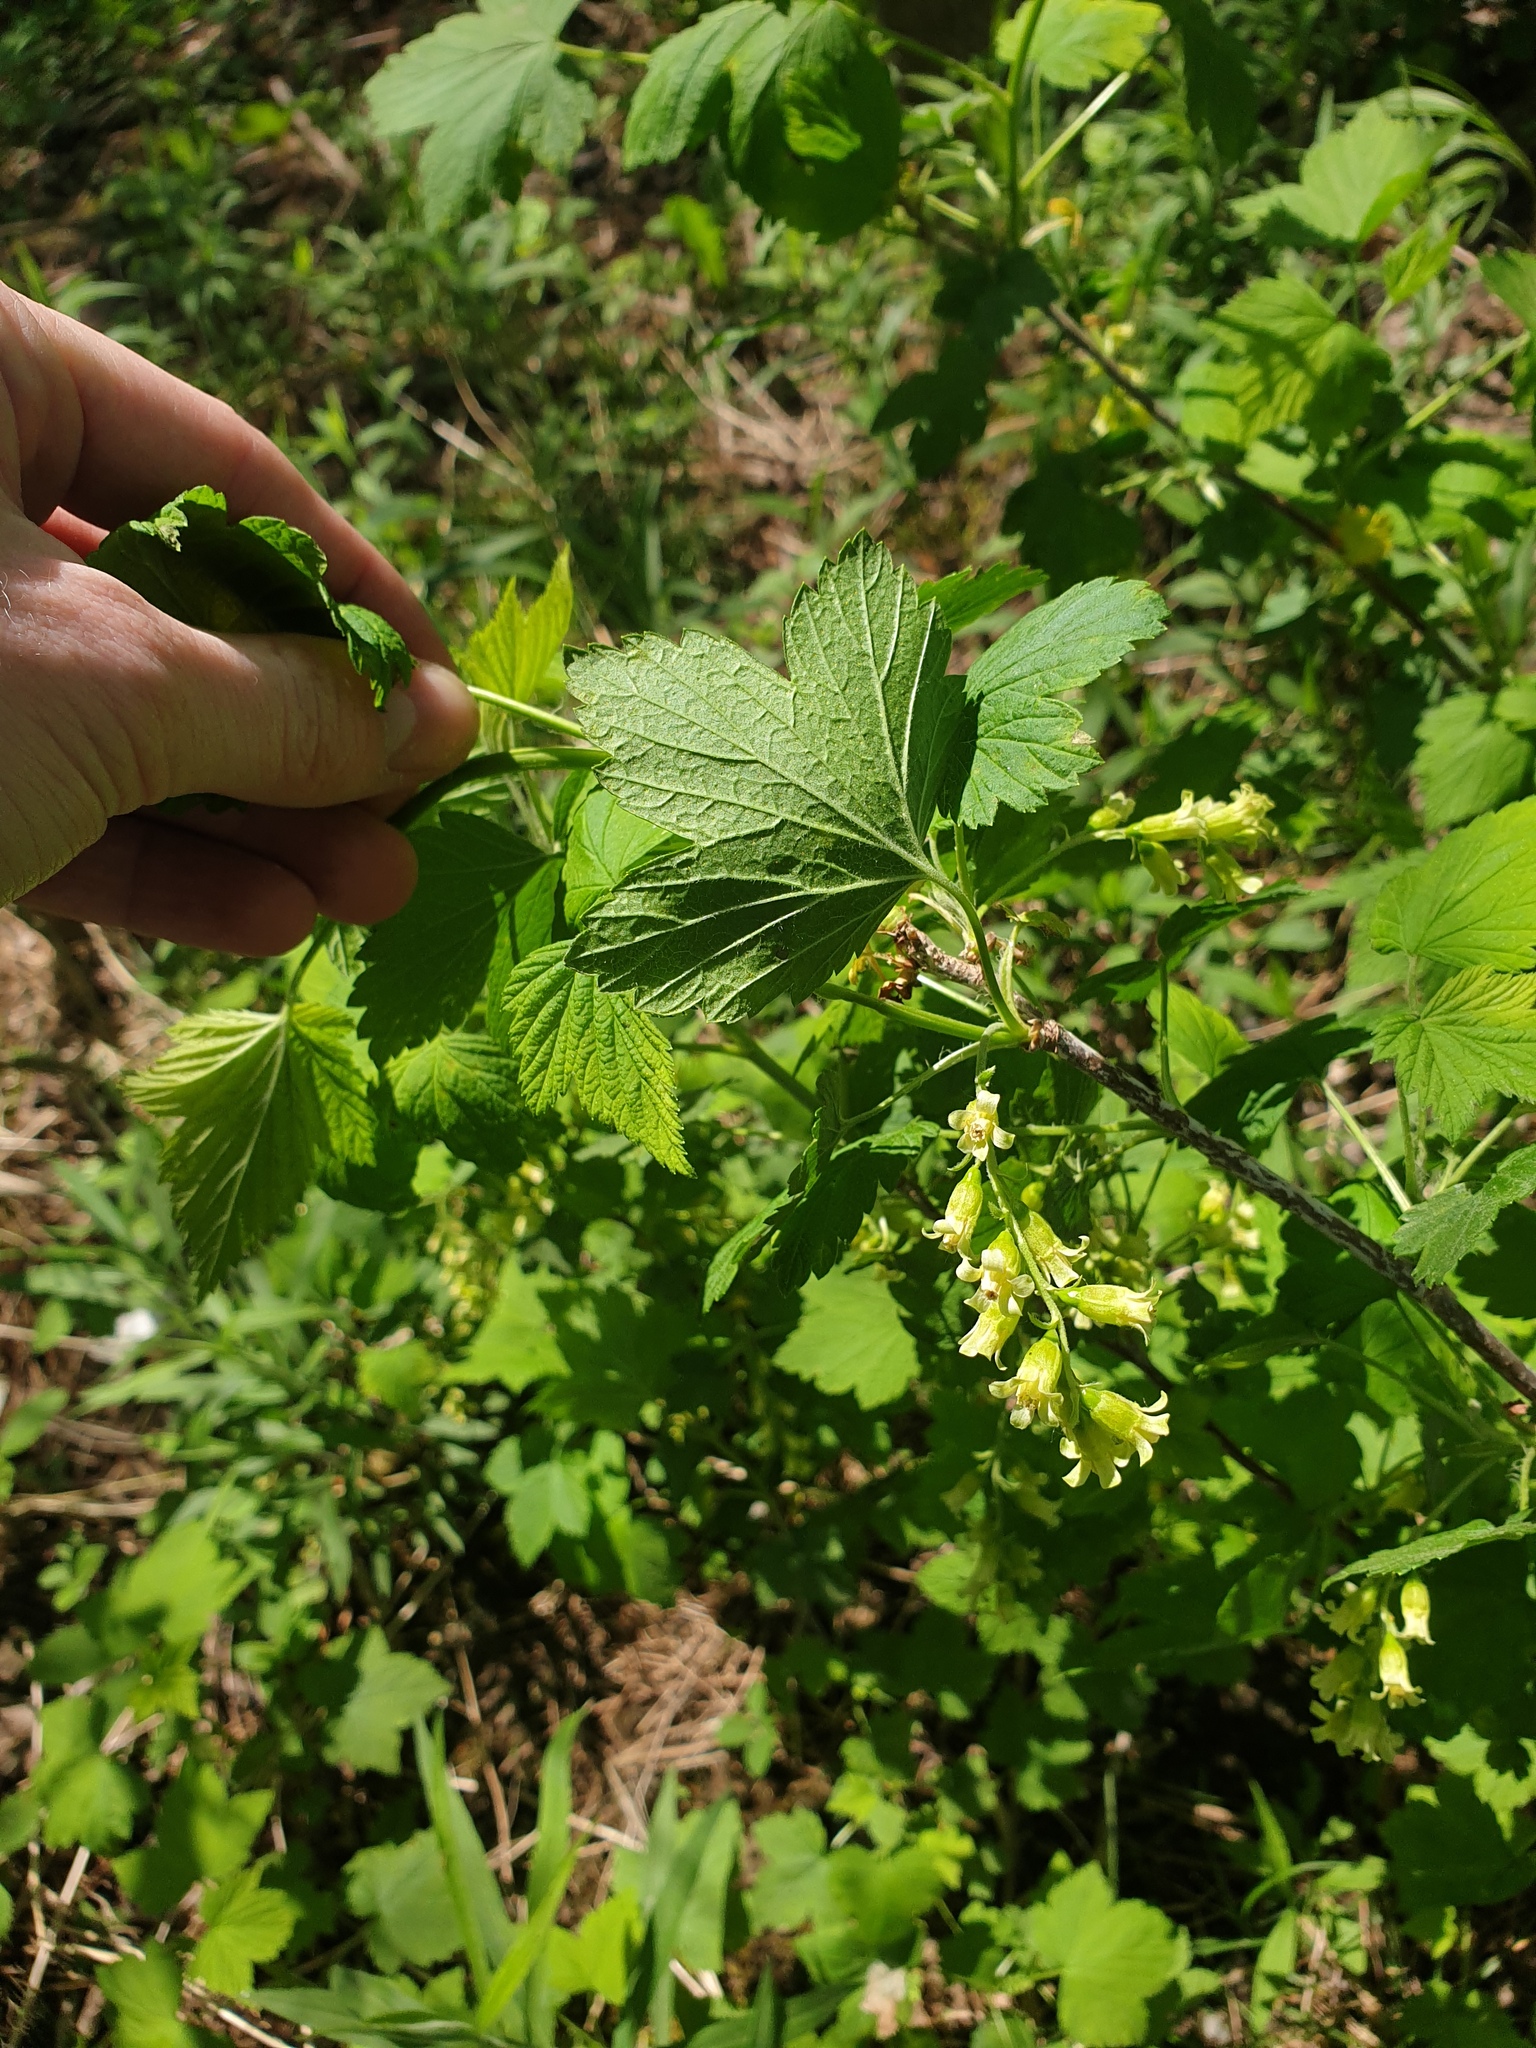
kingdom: Plantae
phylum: Tracheophyta
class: Magnoliopsida
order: Saxifragales
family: Grossulariaceae
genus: Ribes
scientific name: Ribes americanum
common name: American black currant
